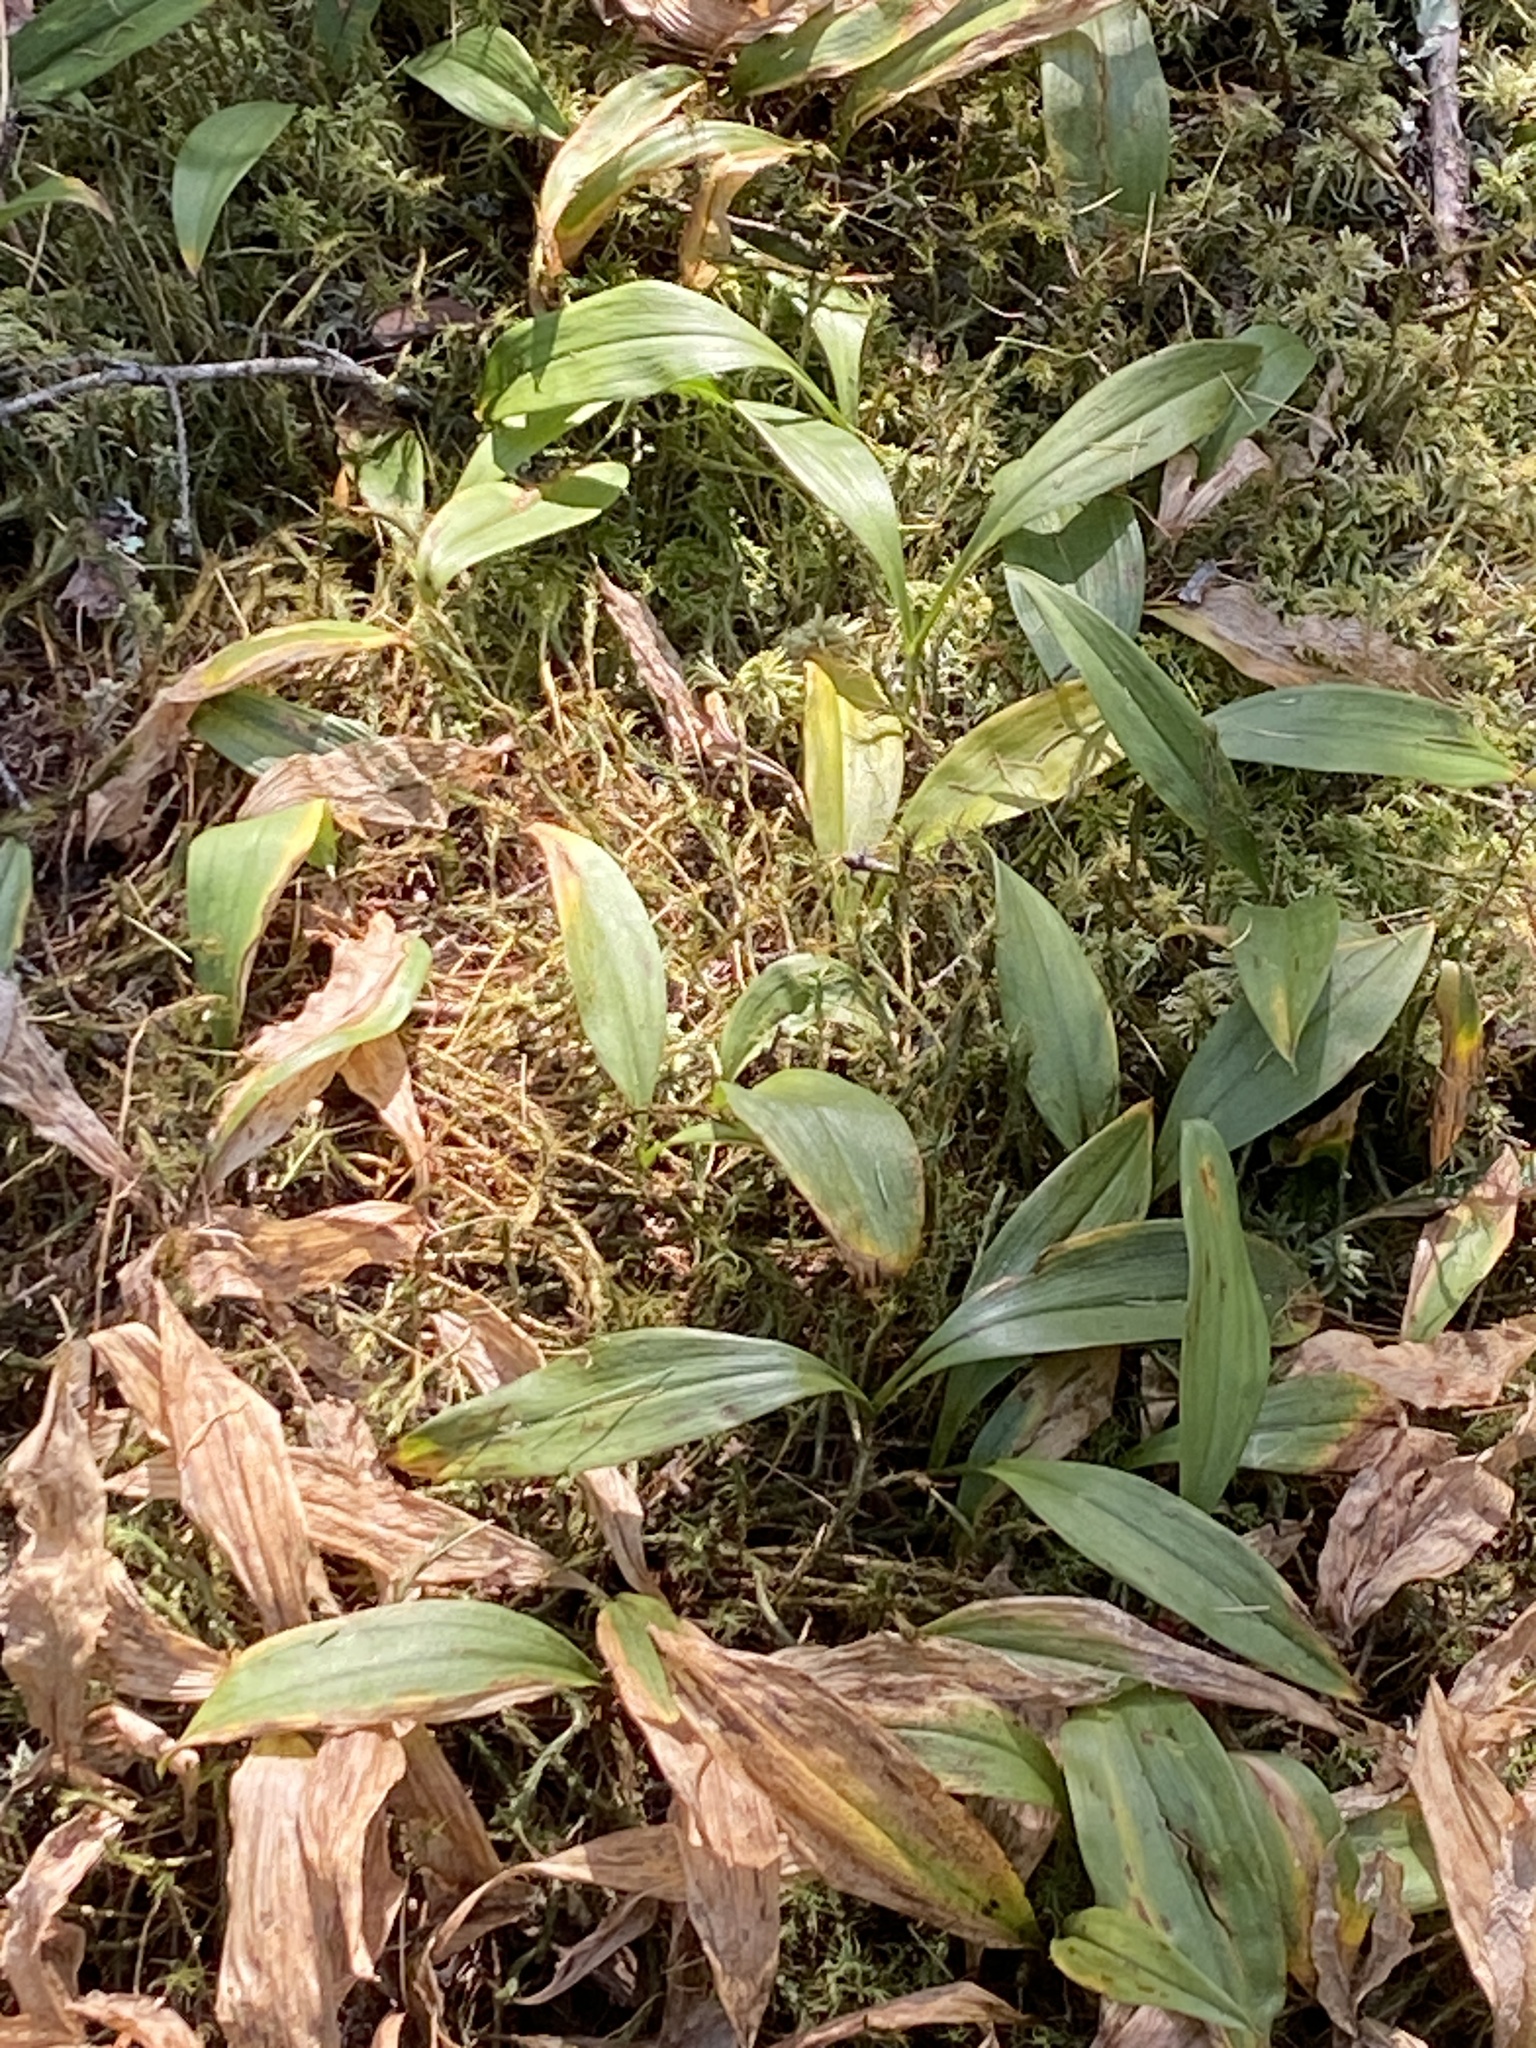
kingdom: Plantae
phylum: Tracheophyta
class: Liliopsida
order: Asparagales
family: Asparagaceae
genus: Maianthemum
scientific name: Maianthemum trifolium
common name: Swamp false solomon's seal
